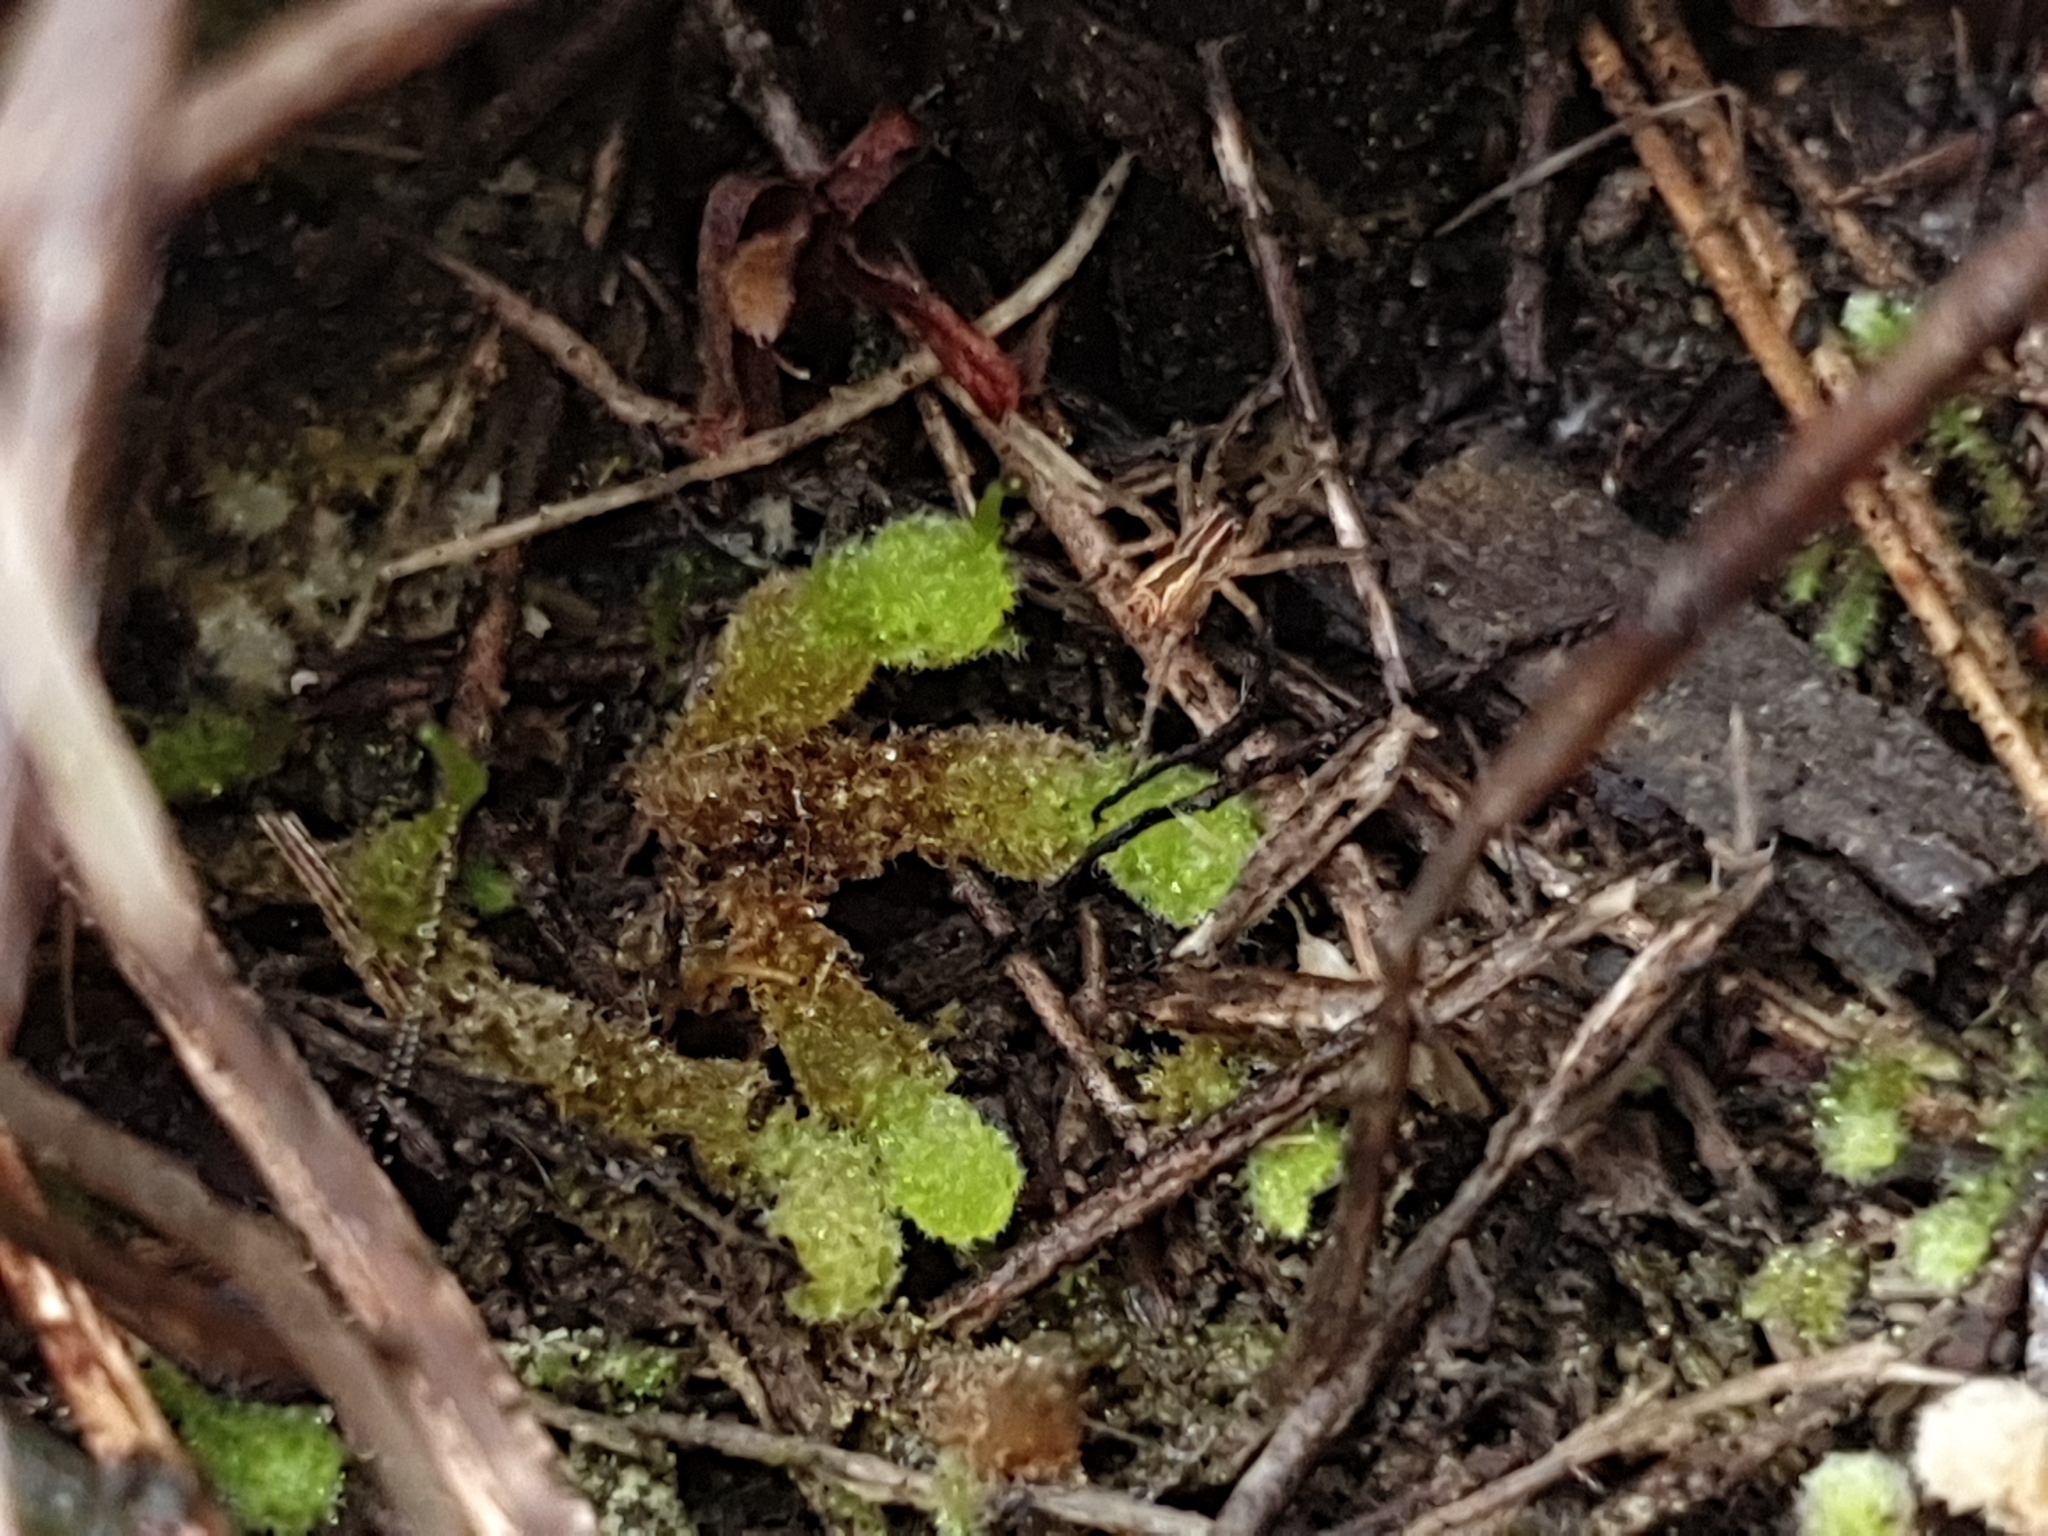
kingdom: Plantae
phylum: Marchantiophyta
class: Jungermanniopsida
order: Jungermanniales
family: Cephaloziellaceae
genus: Chaetophyllopsis
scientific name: Chaetophyllopsis whiteleggei
